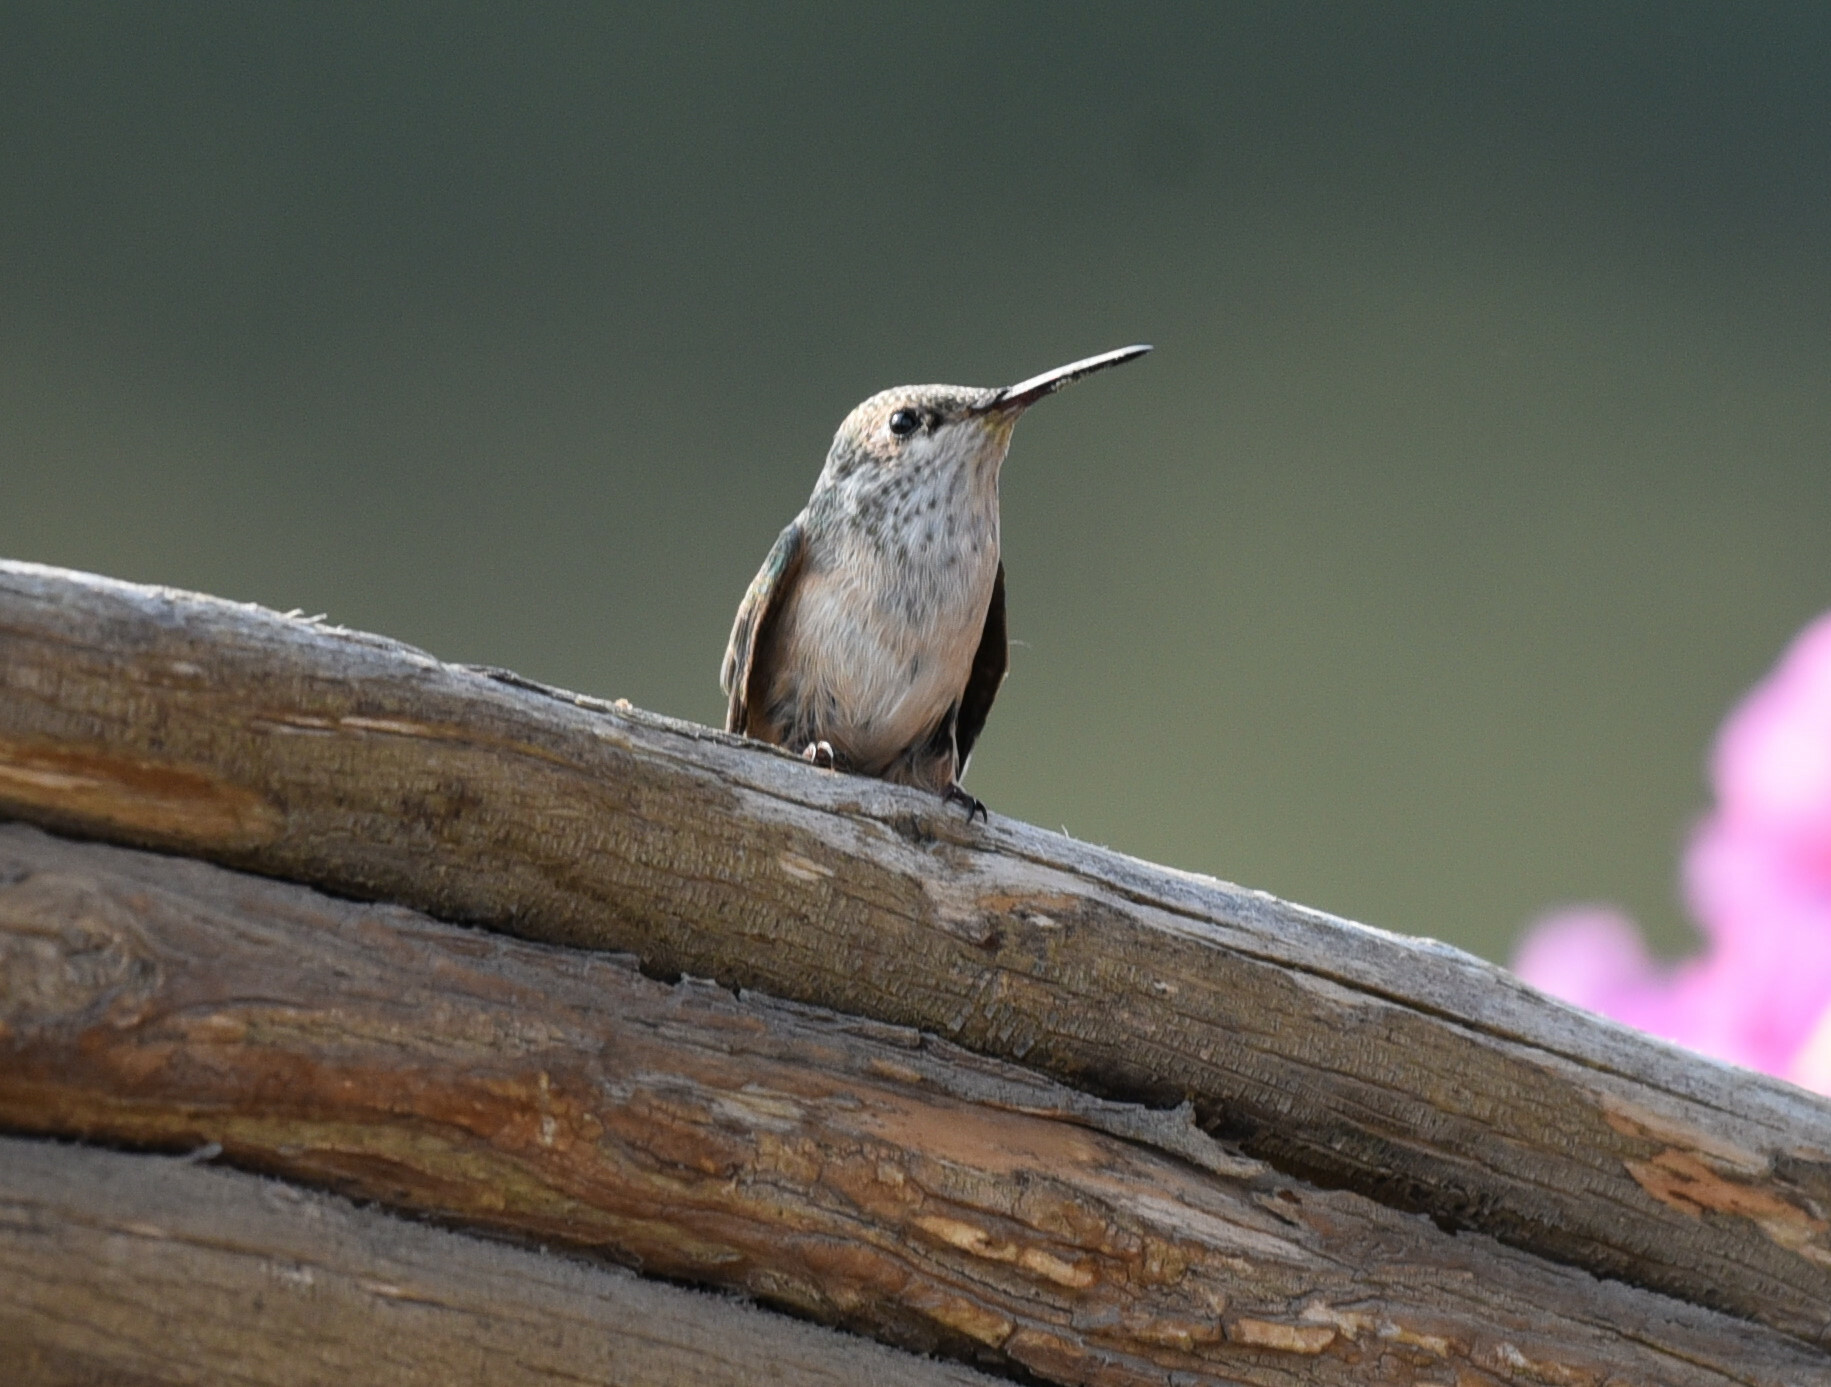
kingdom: Animalia
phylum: Chordata
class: Aves
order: Apodiformes
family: Trochilidae
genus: Calypte
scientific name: Calypte anna
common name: Anna's hummingbird
